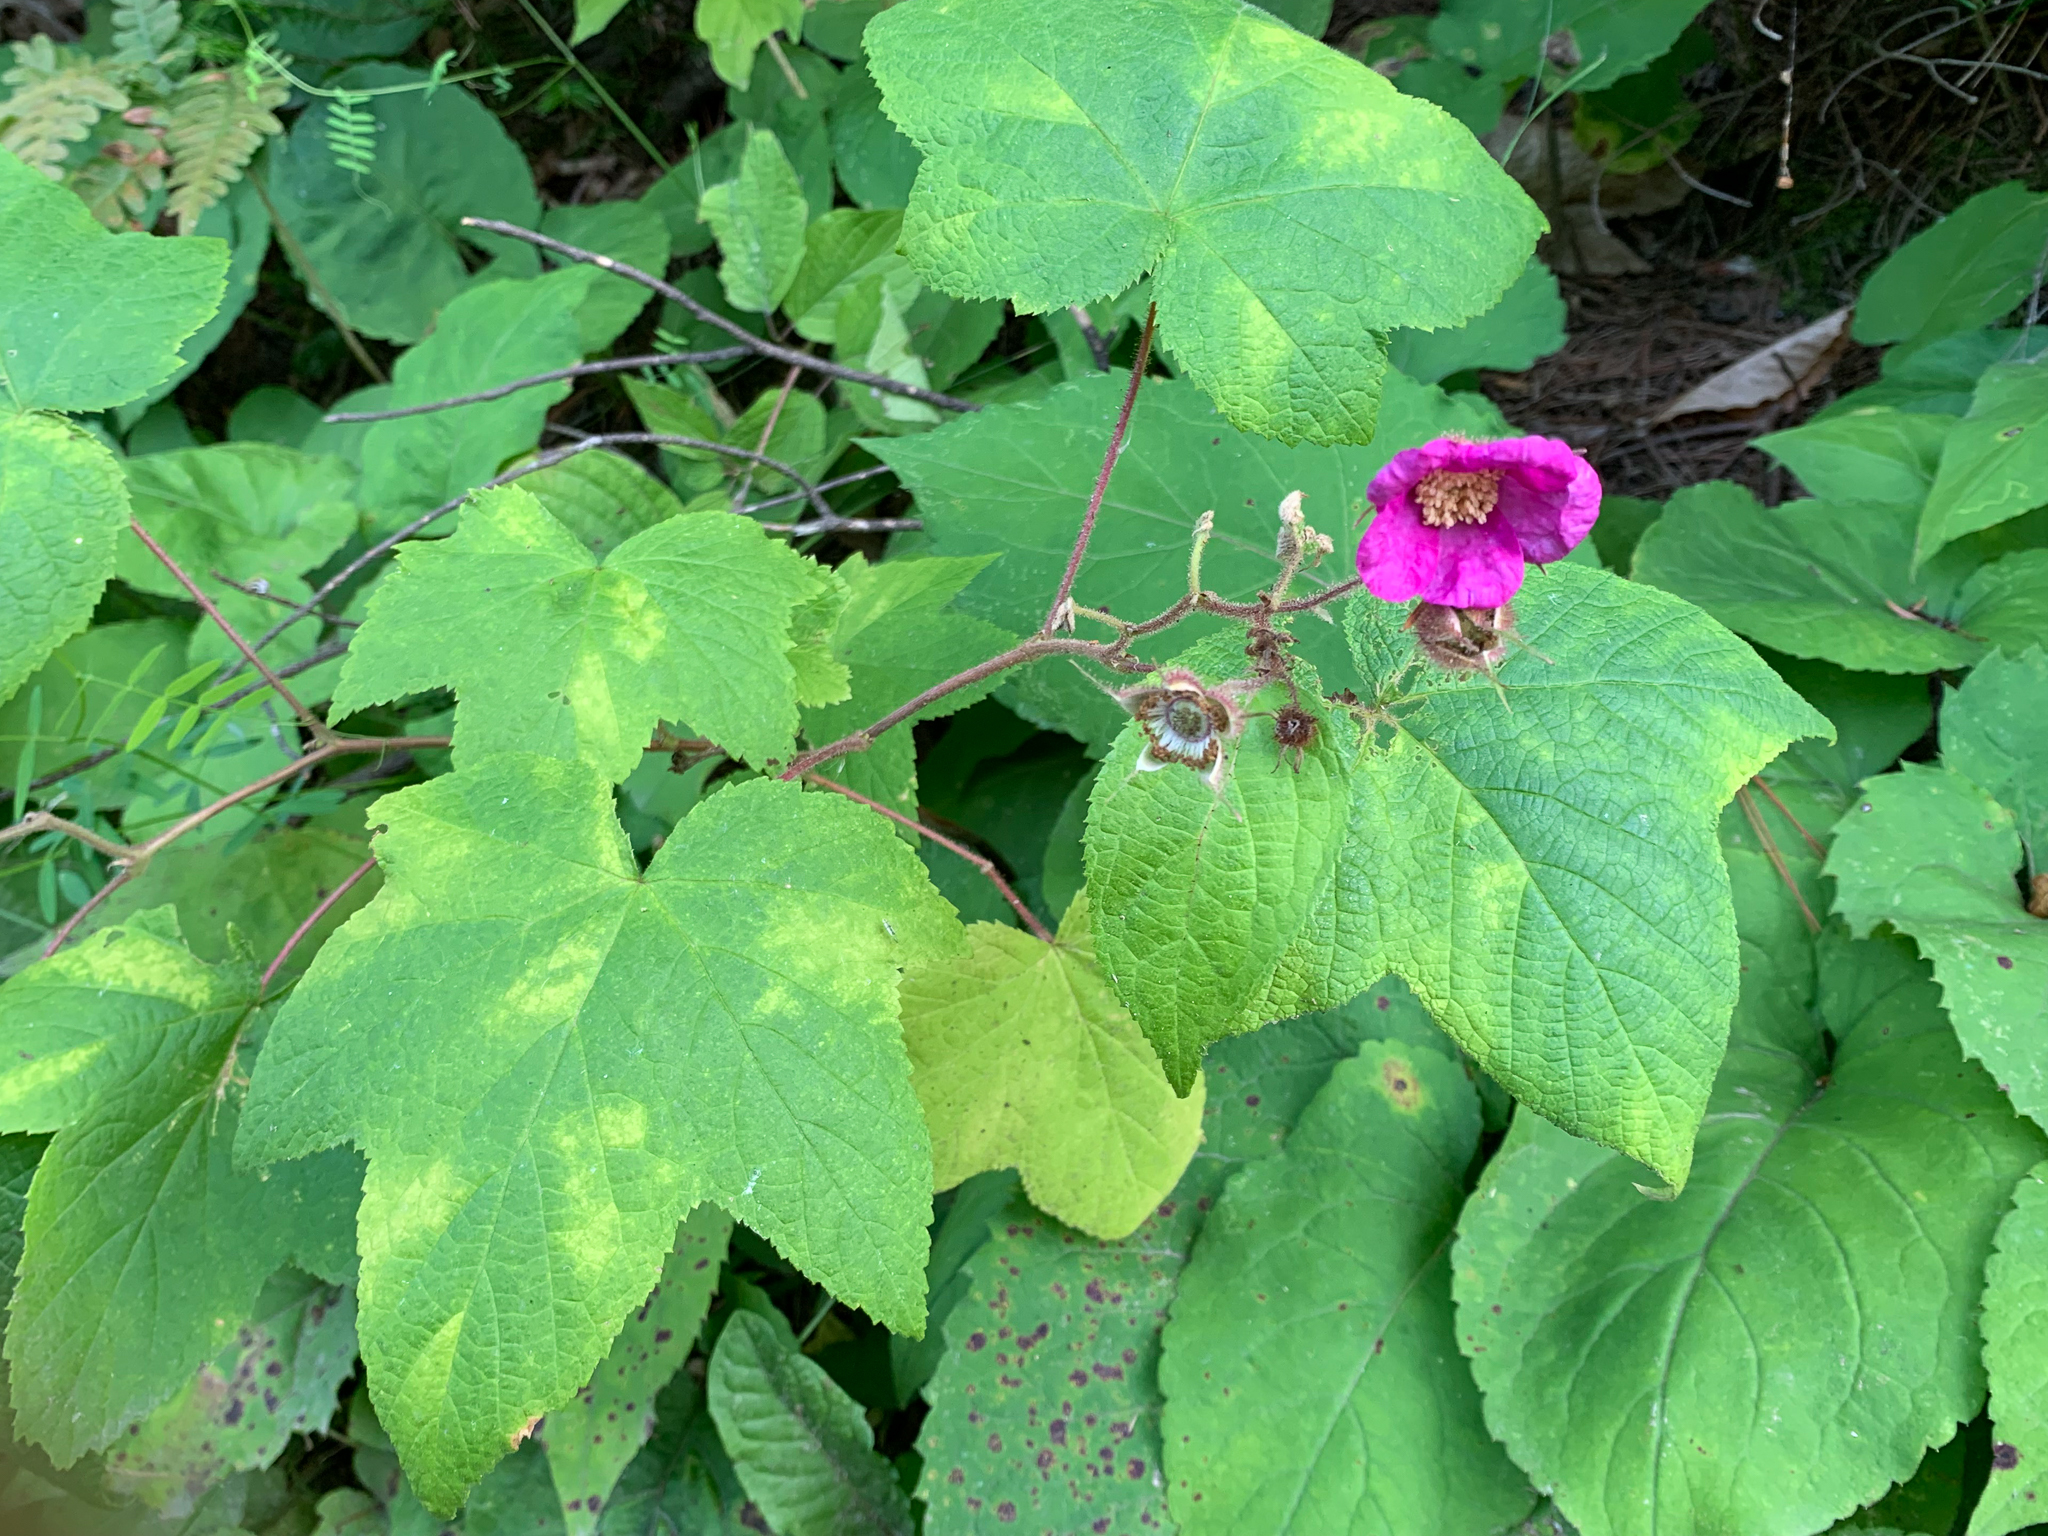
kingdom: Plantae
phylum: Tracheophyta
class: Magnoliopsida
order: Rosales
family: Rosaceae
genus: Rubus
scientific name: Rubus odoratus
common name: Purple-flowered raspberry
